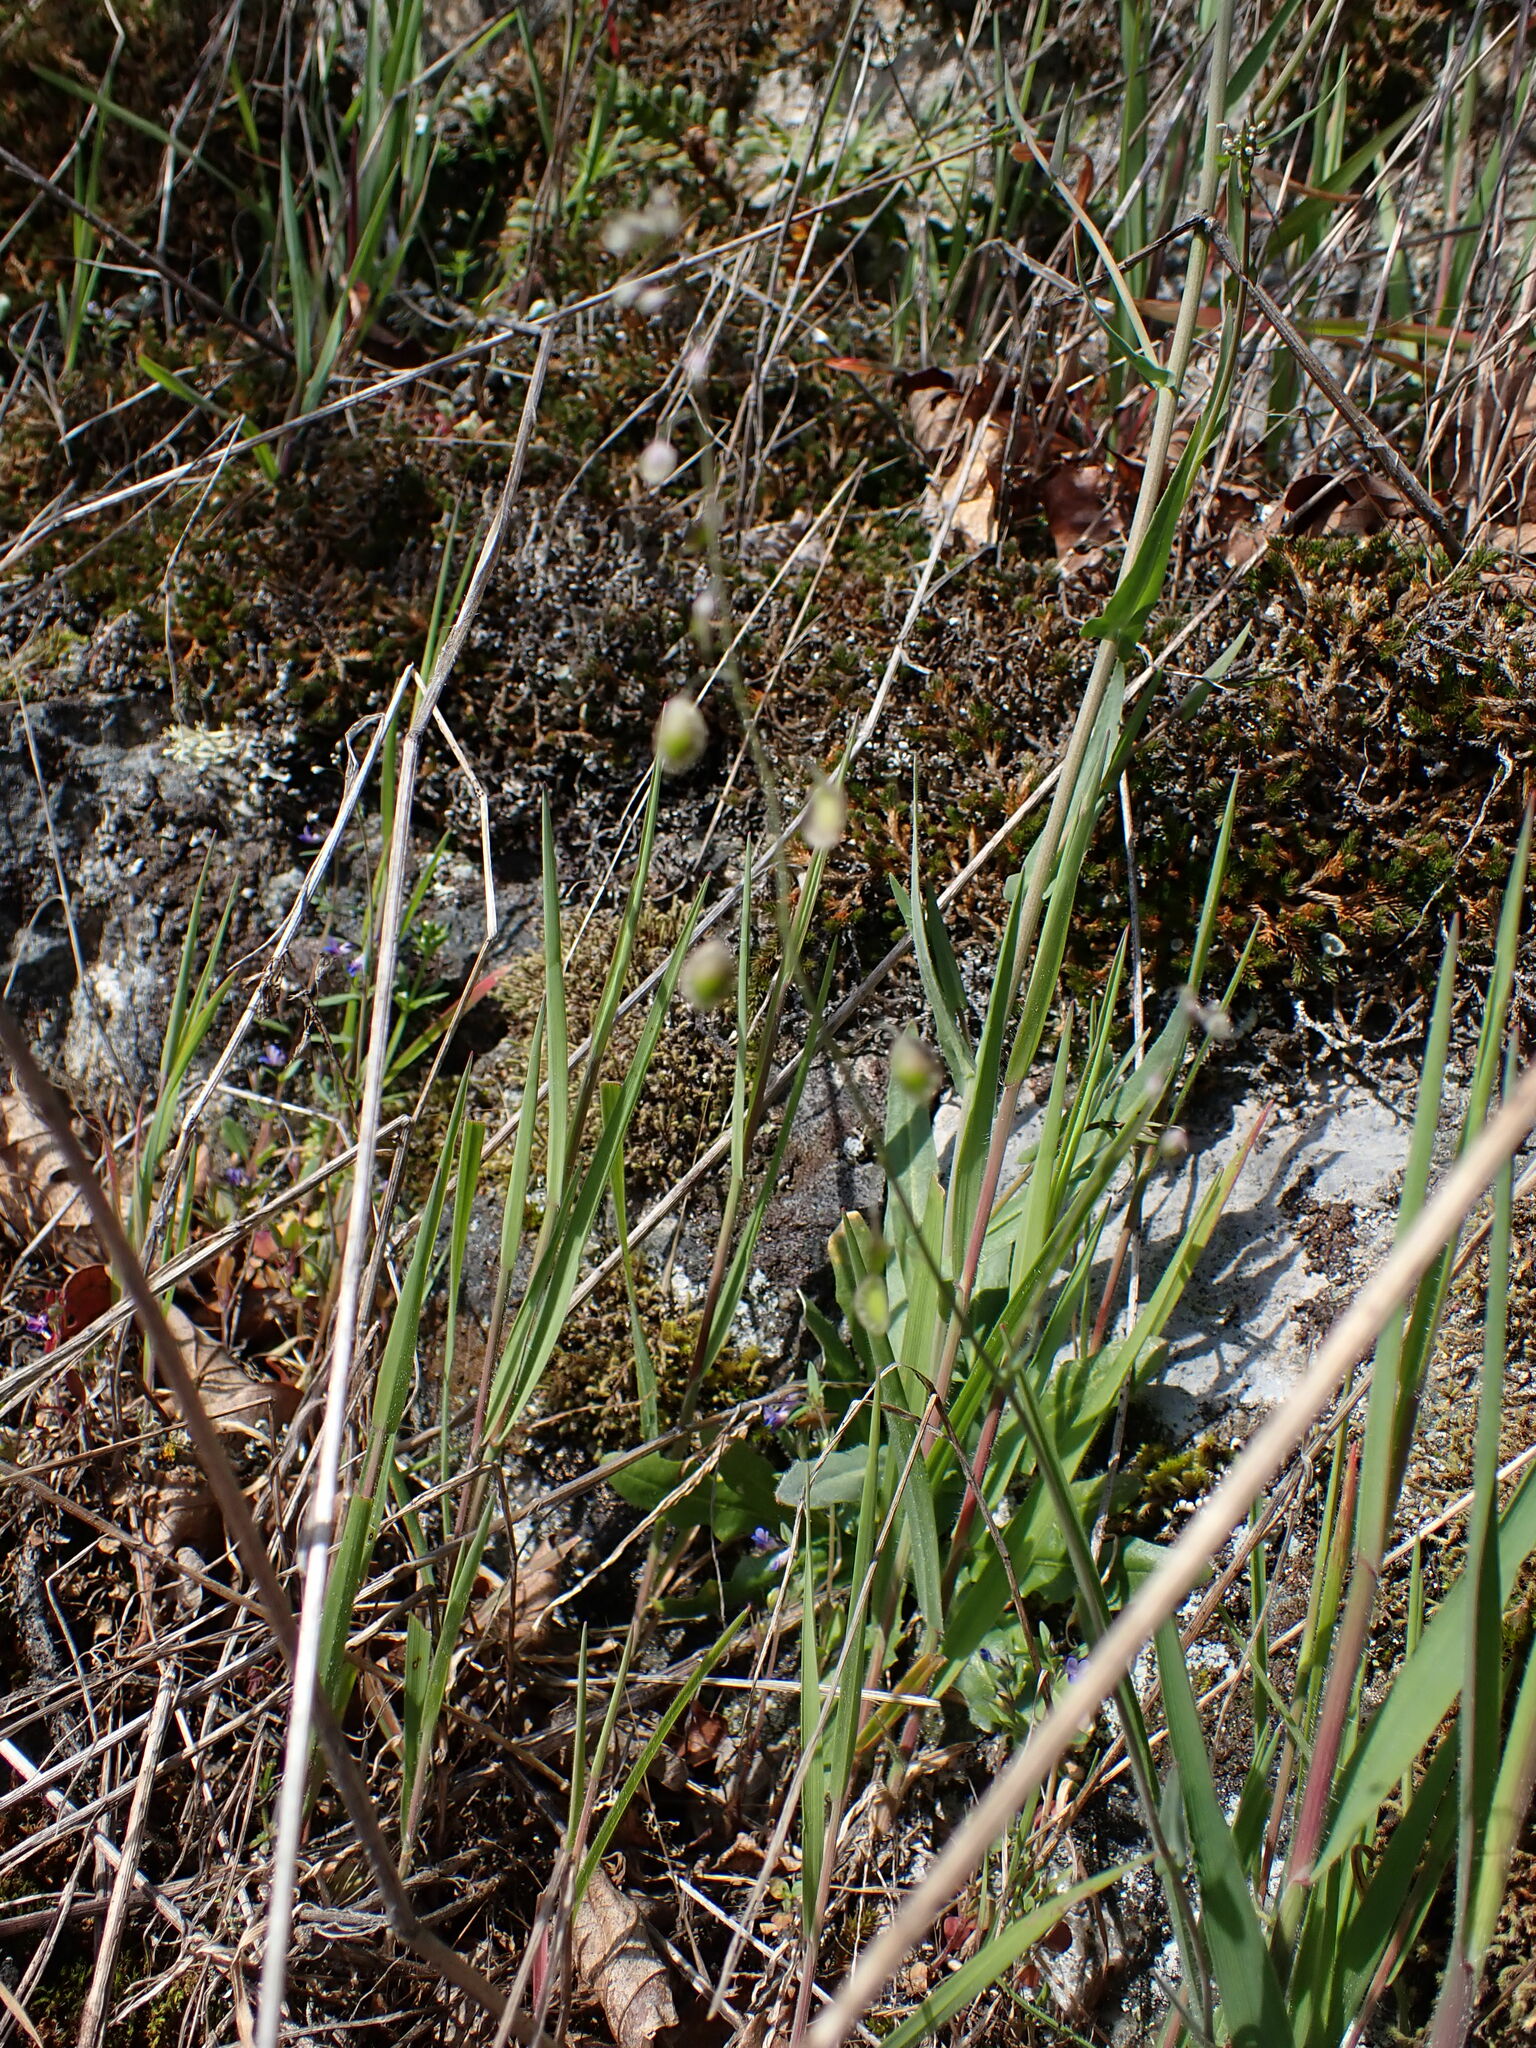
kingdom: Plantae
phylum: Tracheophyta
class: Magnoliopsida
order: Brassicales
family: Brassicaceae
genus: Thysanocarpus
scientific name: Thysanocarpus curvipes
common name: Sand fringepod
